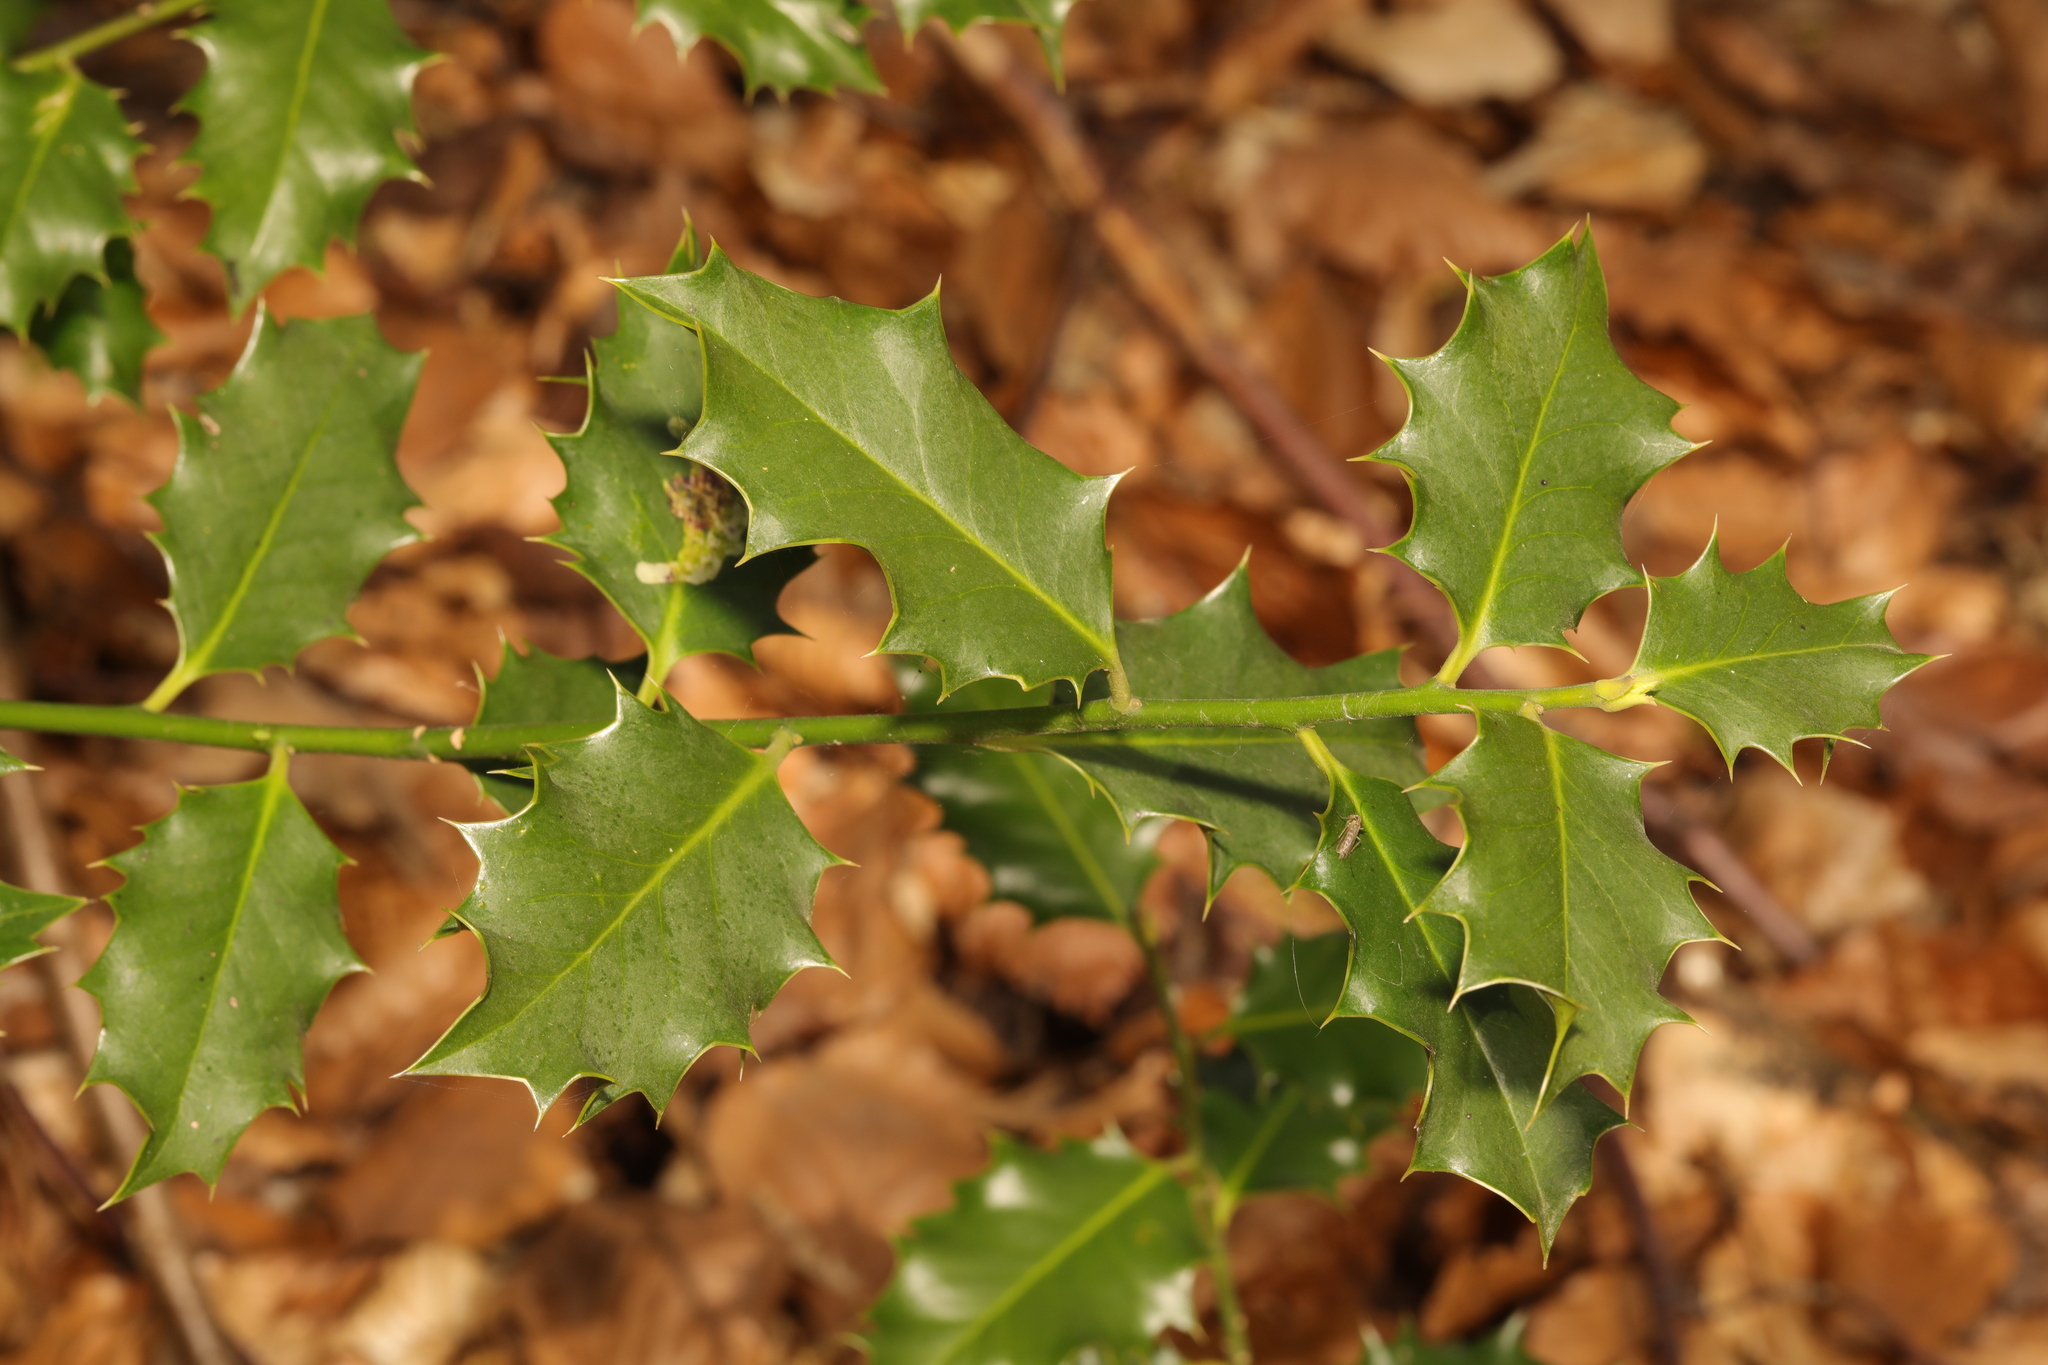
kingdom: Plantae
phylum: Tracheophyta
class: Magnoliopsida
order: Aquifoliales
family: Aquifoliaceae
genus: Ilex
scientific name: Ilex aquifolium
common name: English holly
